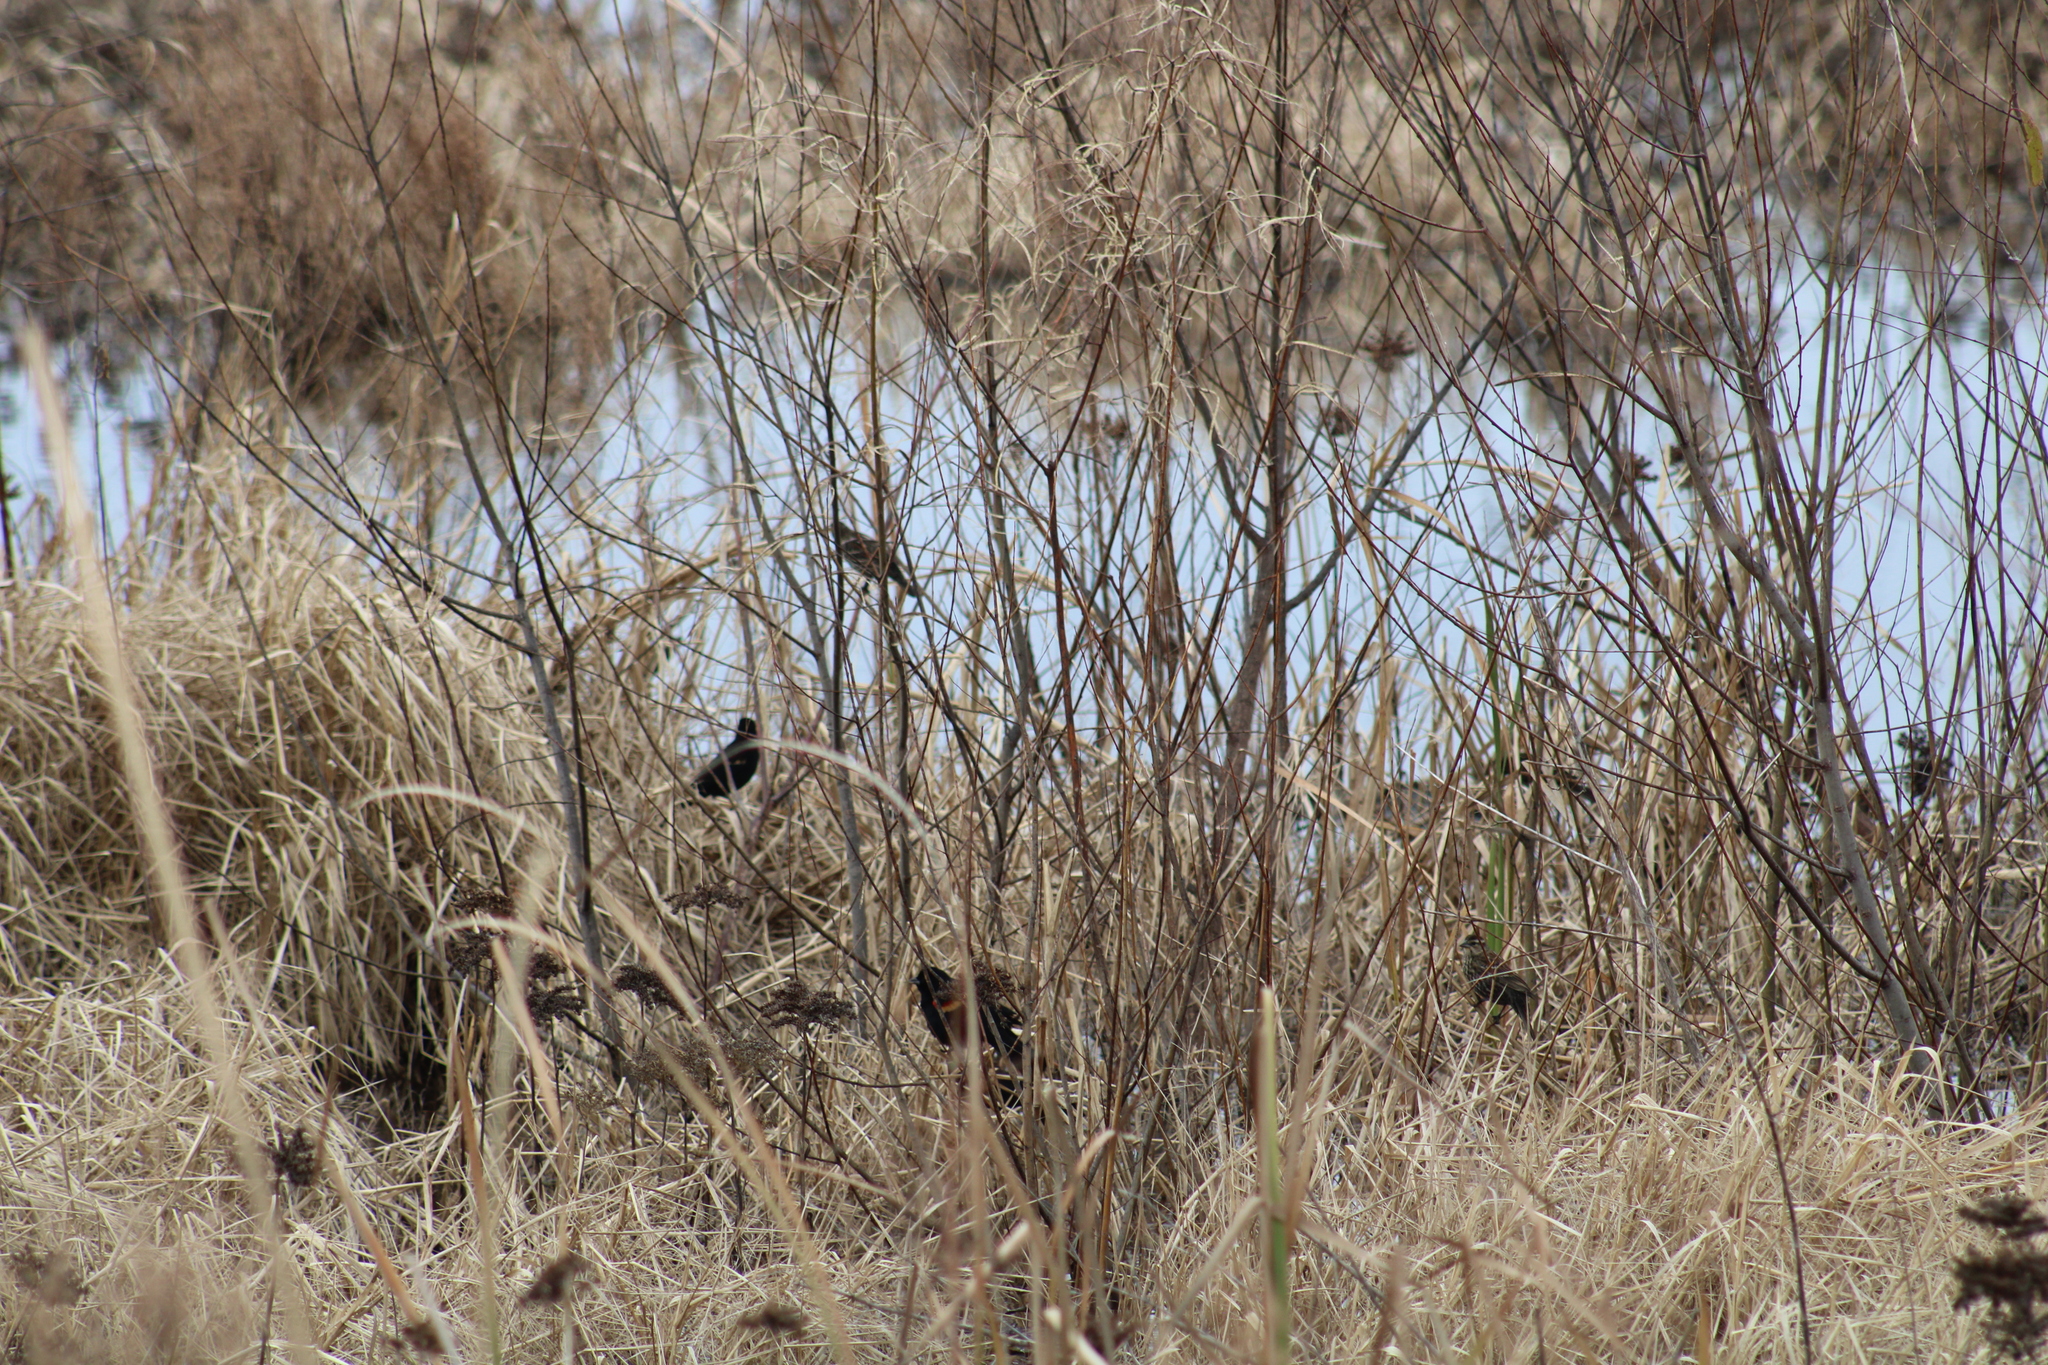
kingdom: Animalia
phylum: Chordata
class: Aves
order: Passeriformes
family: Icteridae
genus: Agelaius
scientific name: Agelaius phoeniceus
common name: Red-winged blackbird
